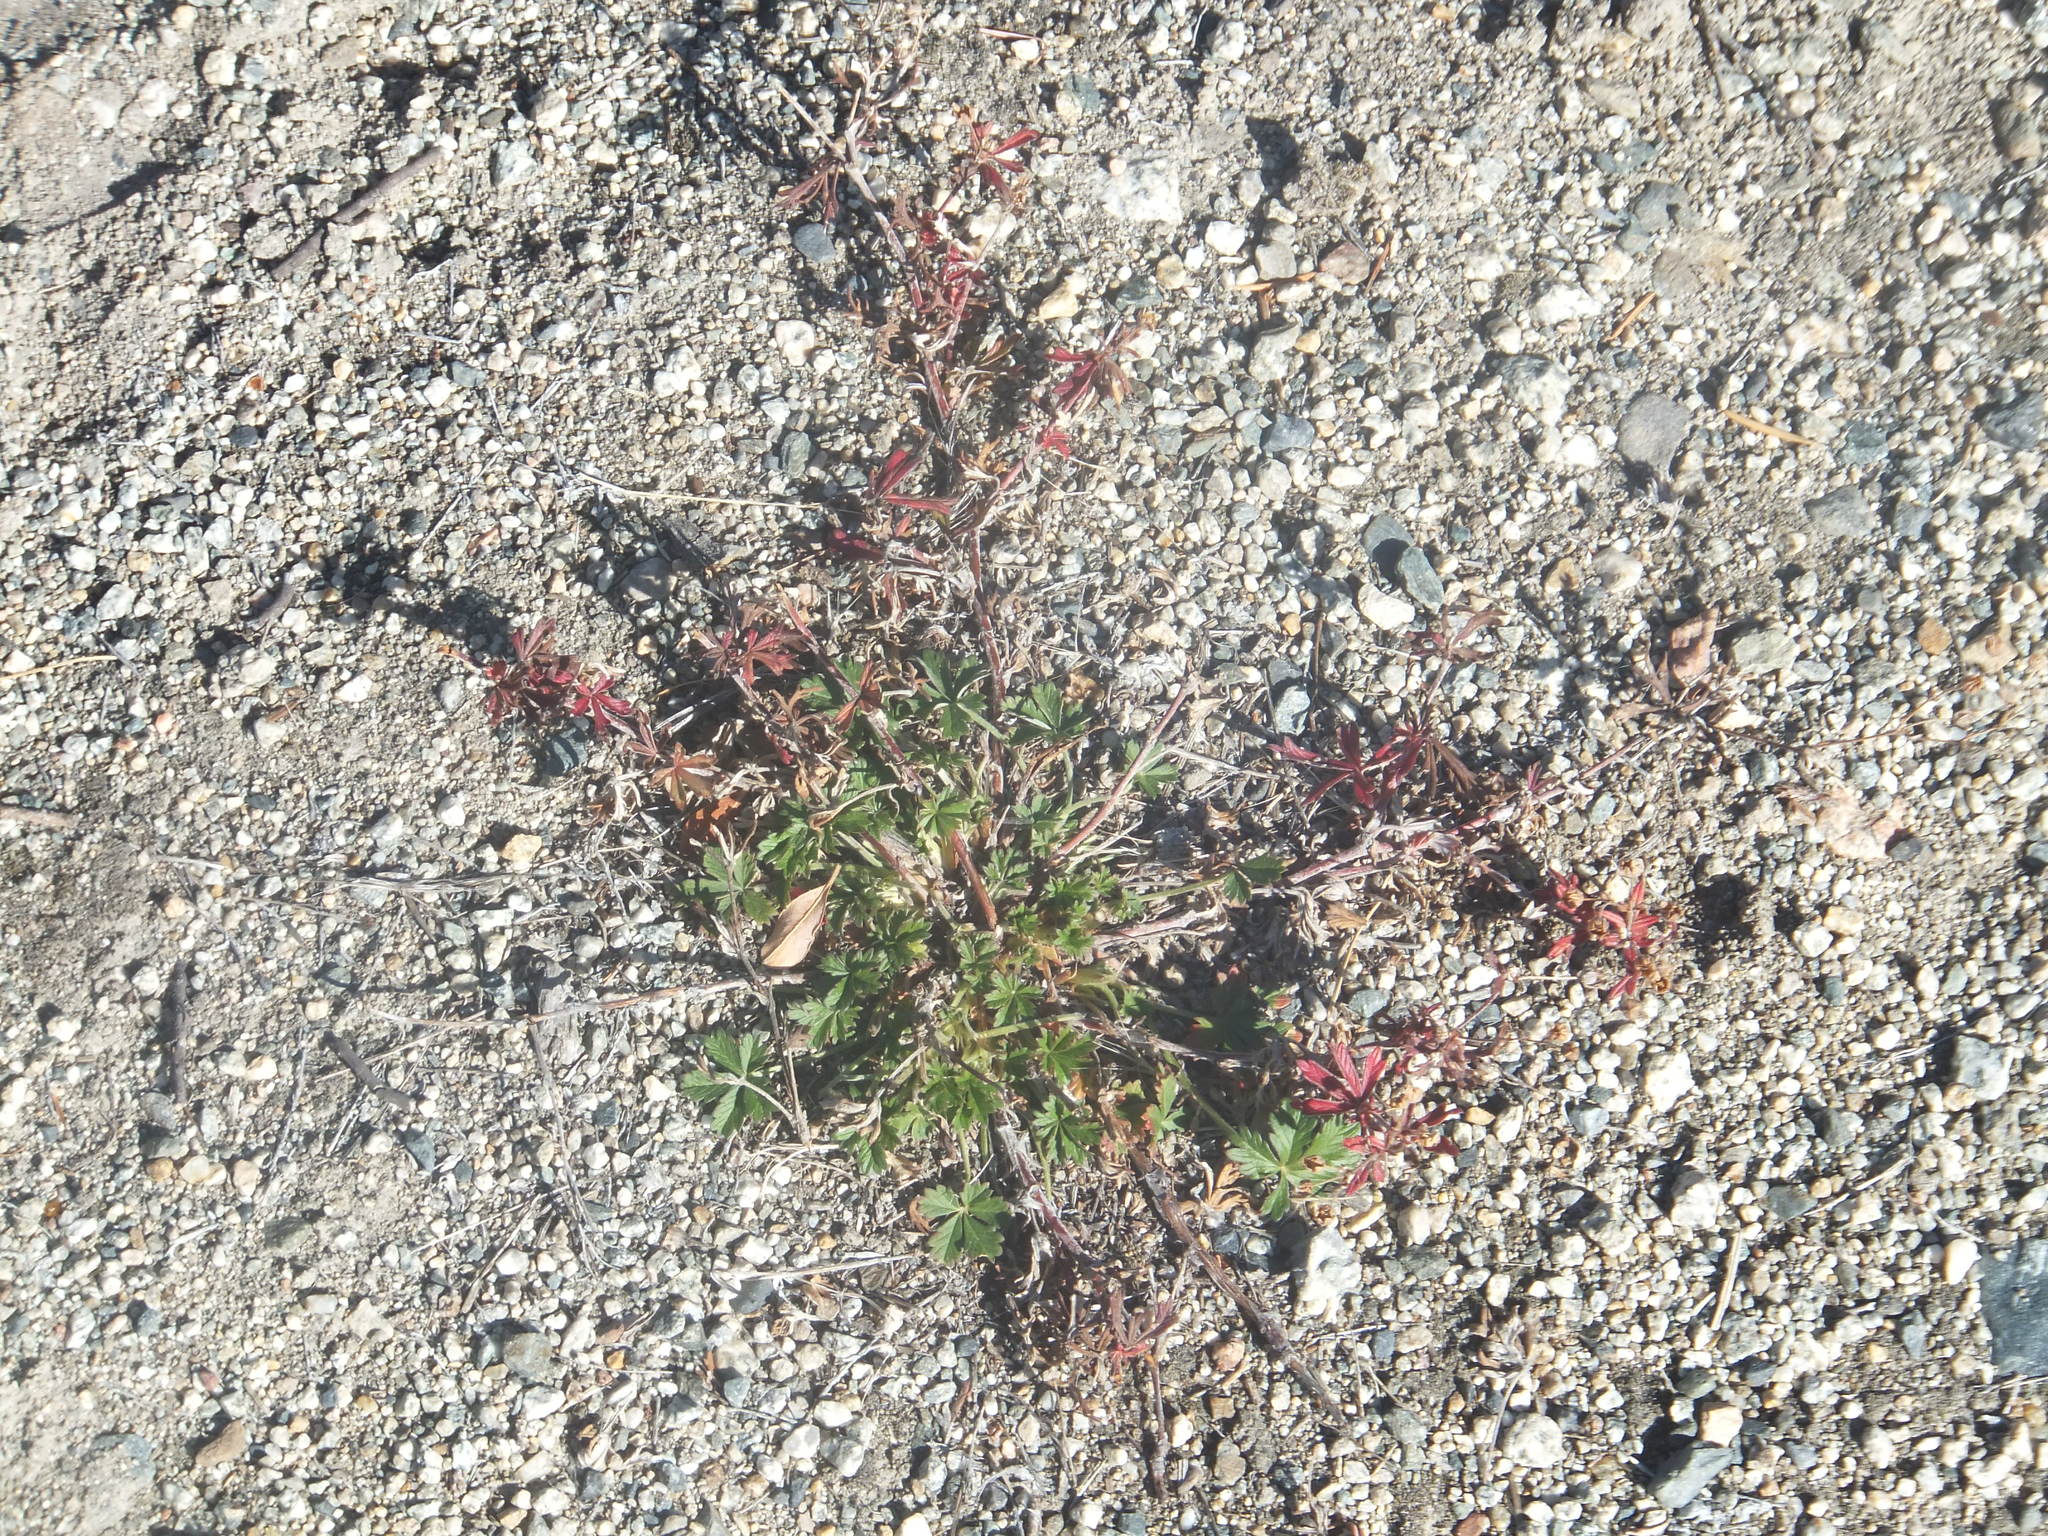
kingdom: Plantae
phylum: Tracheophyta
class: Magnoliopsida
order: Rosales
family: Rosaceae
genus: Potentilla
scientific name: Potentilla argentea
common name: Hoary cinquefoil
